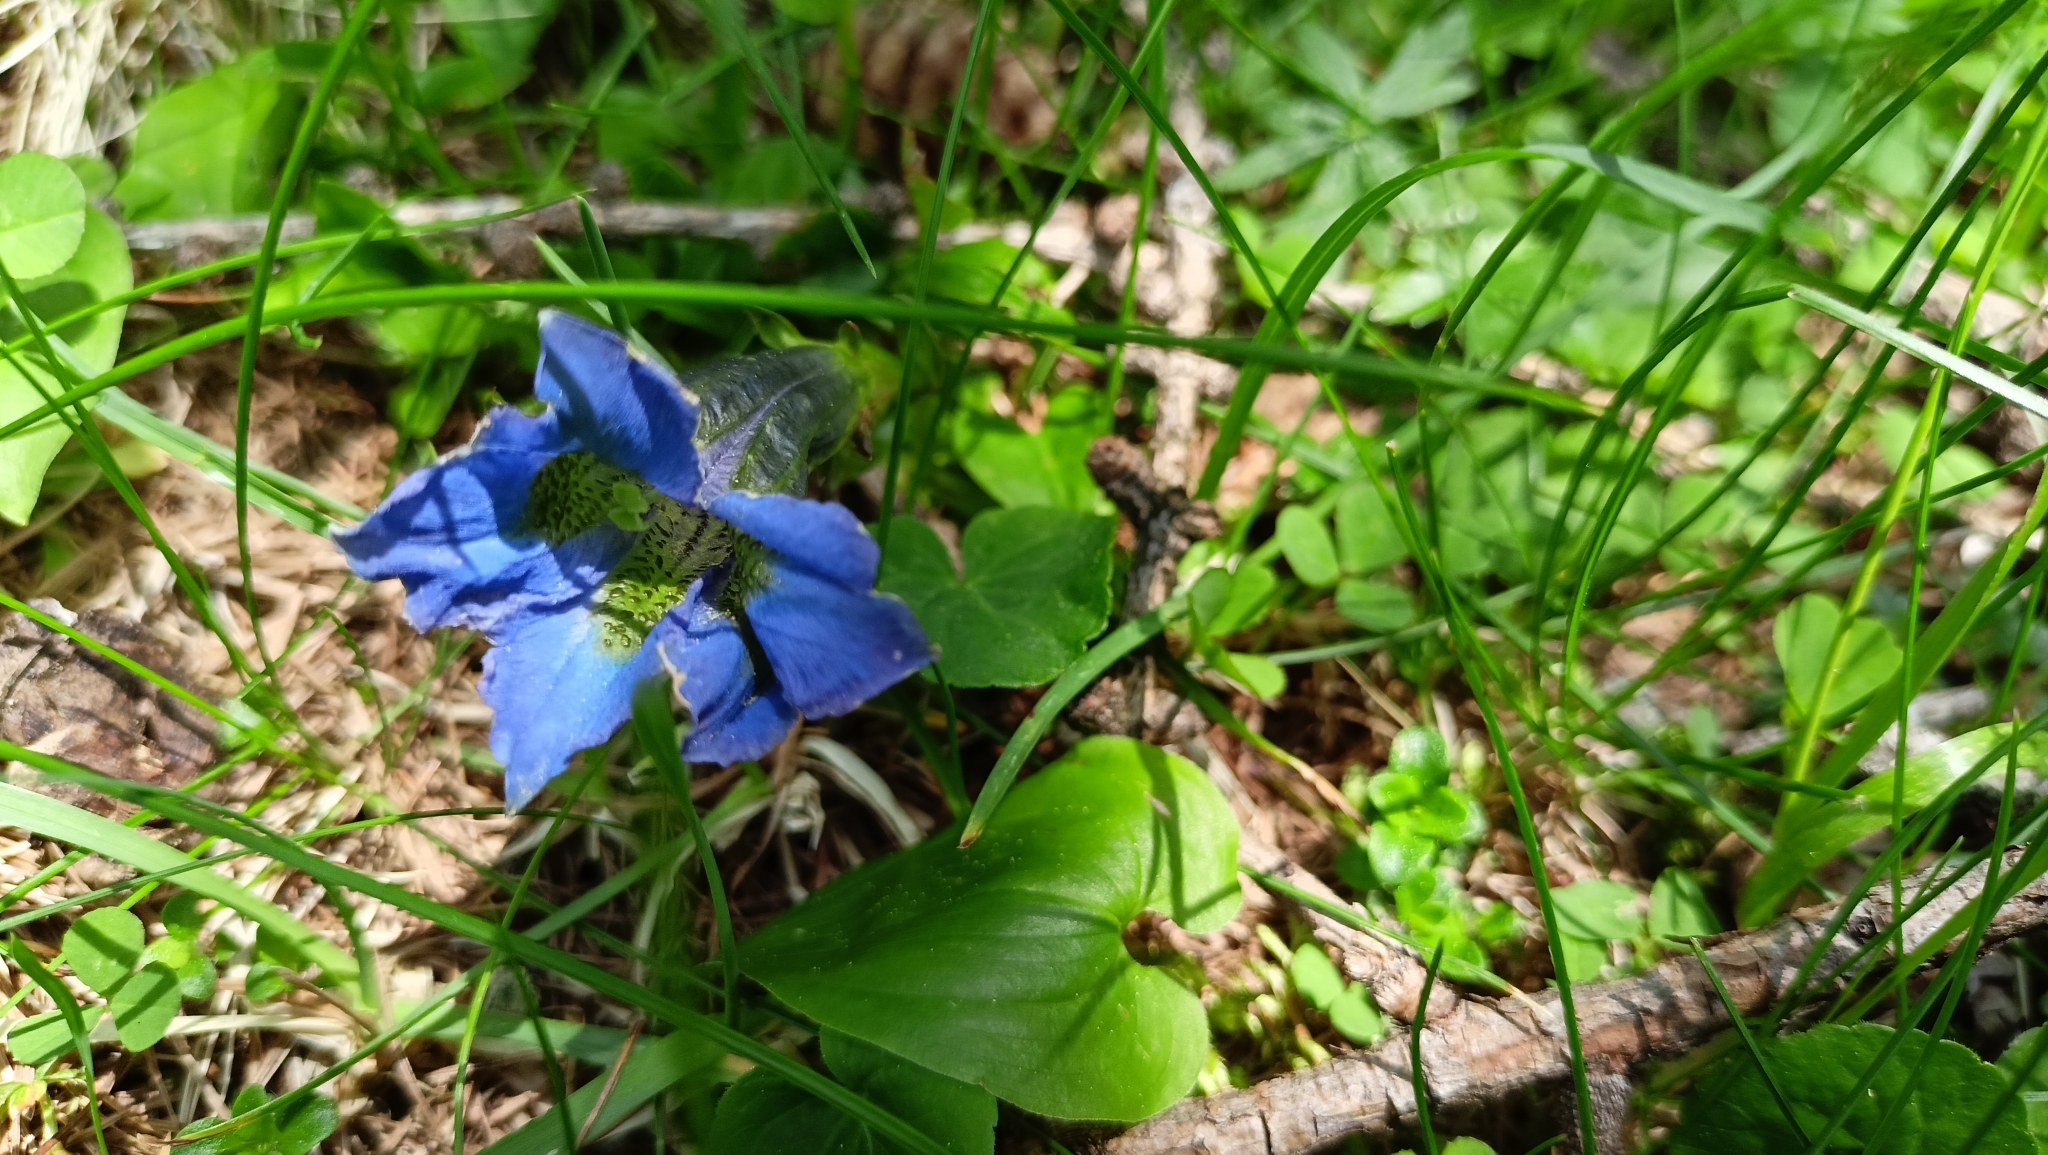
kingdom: Plantae
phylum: Tracheophyta
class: Magnoliopsida
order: Gentianales
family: Gentianaceae
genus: Gentiana
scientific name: Gentiana acaulis
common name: Trumpet gentian
